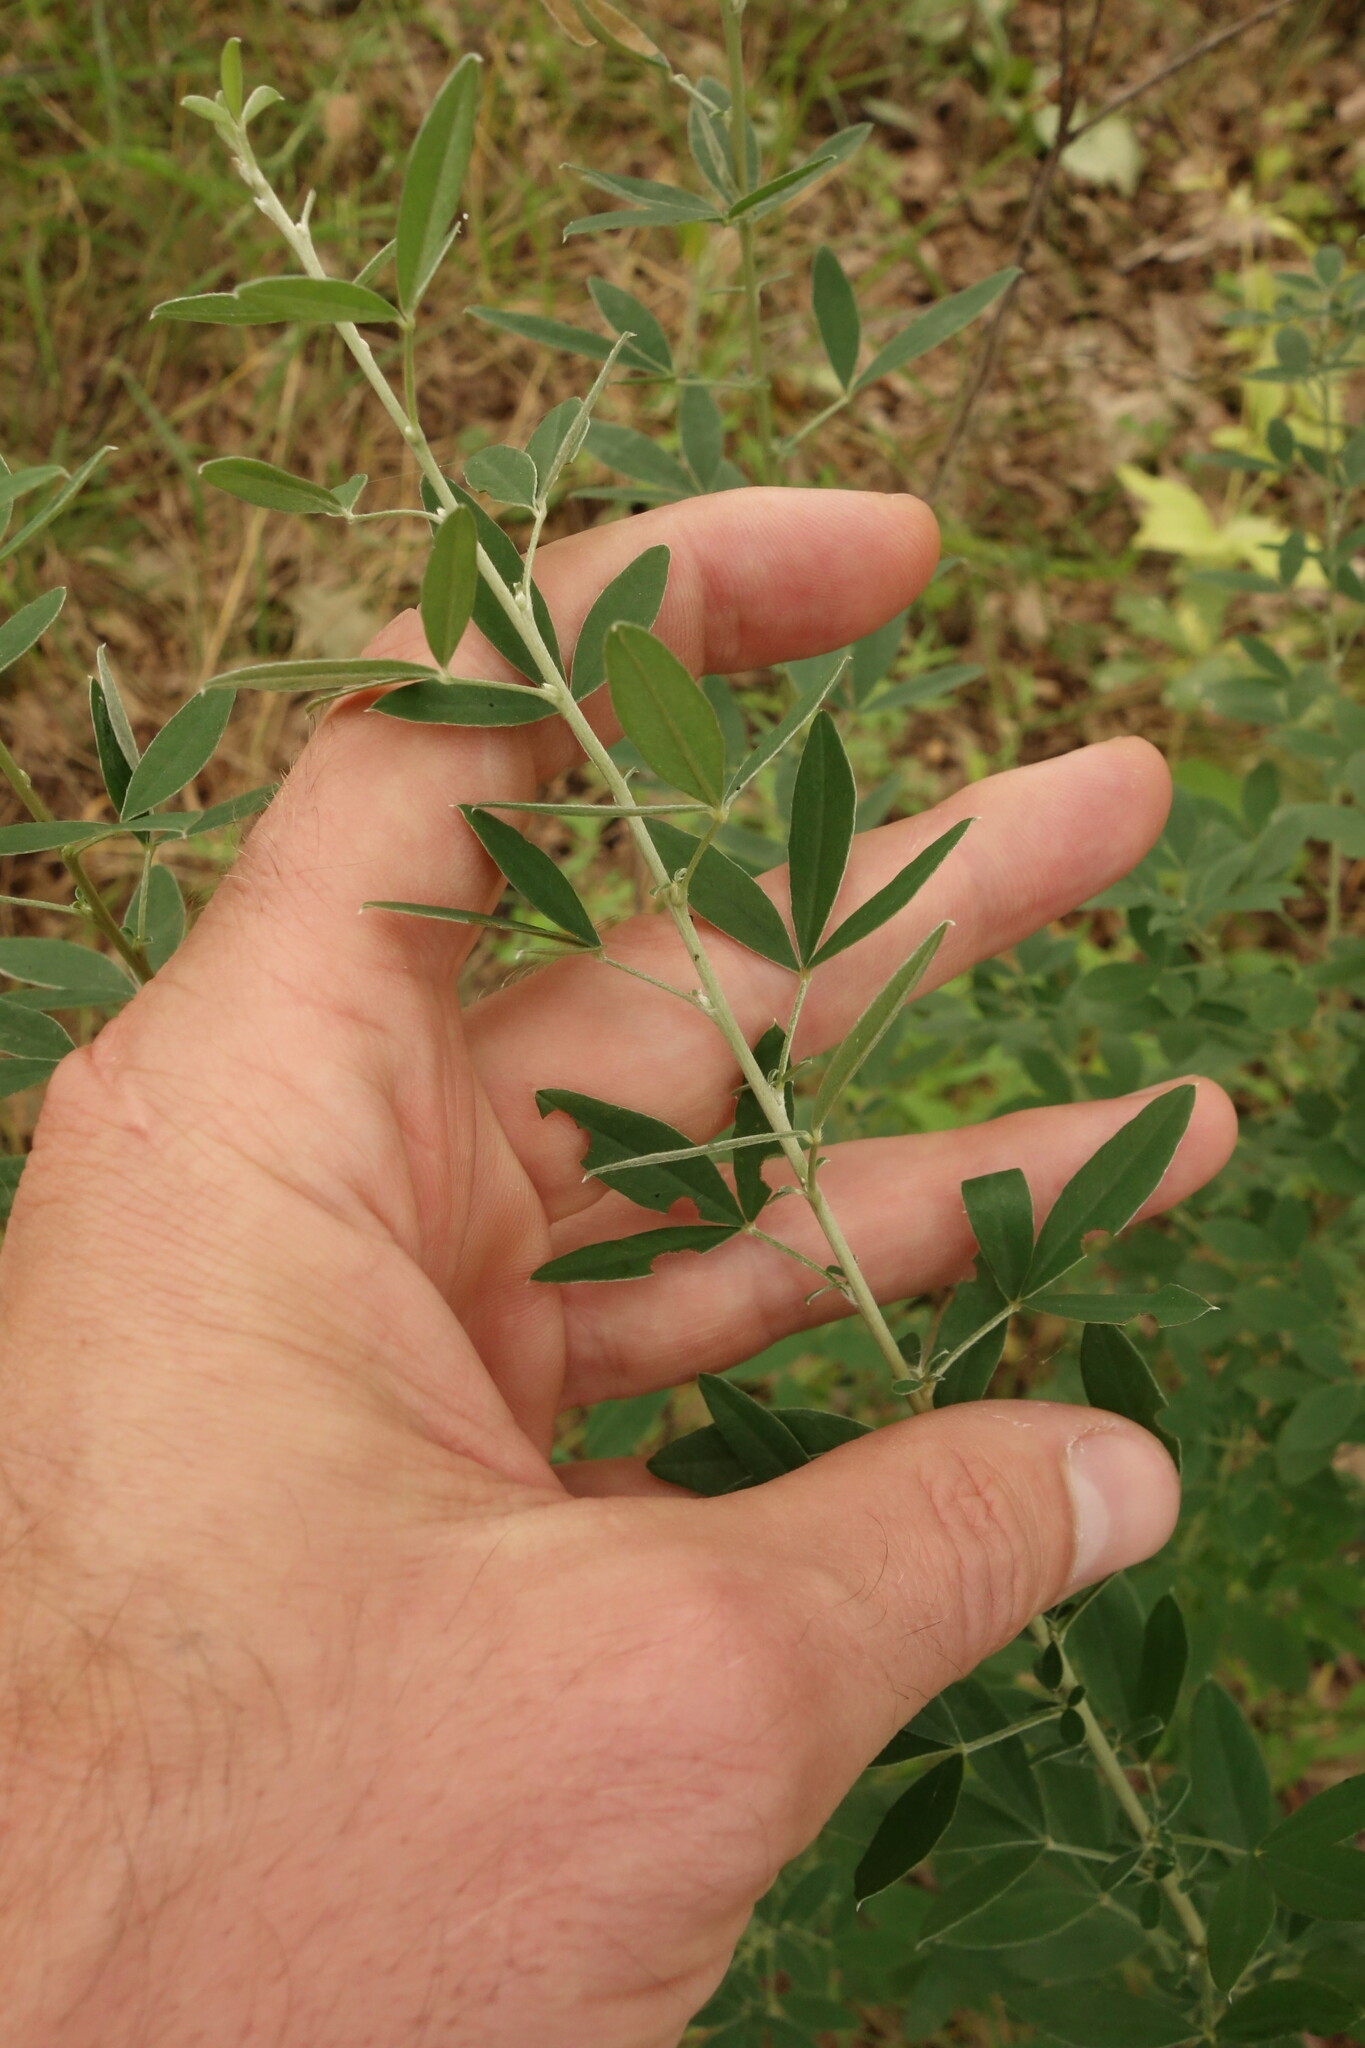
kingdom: Plantae
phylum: Tracheophyta
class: Magnoliopsida
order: Fabales
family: Fabaceae
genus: Chamaecytisus
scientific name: Chamaecytisus ruthenicus
